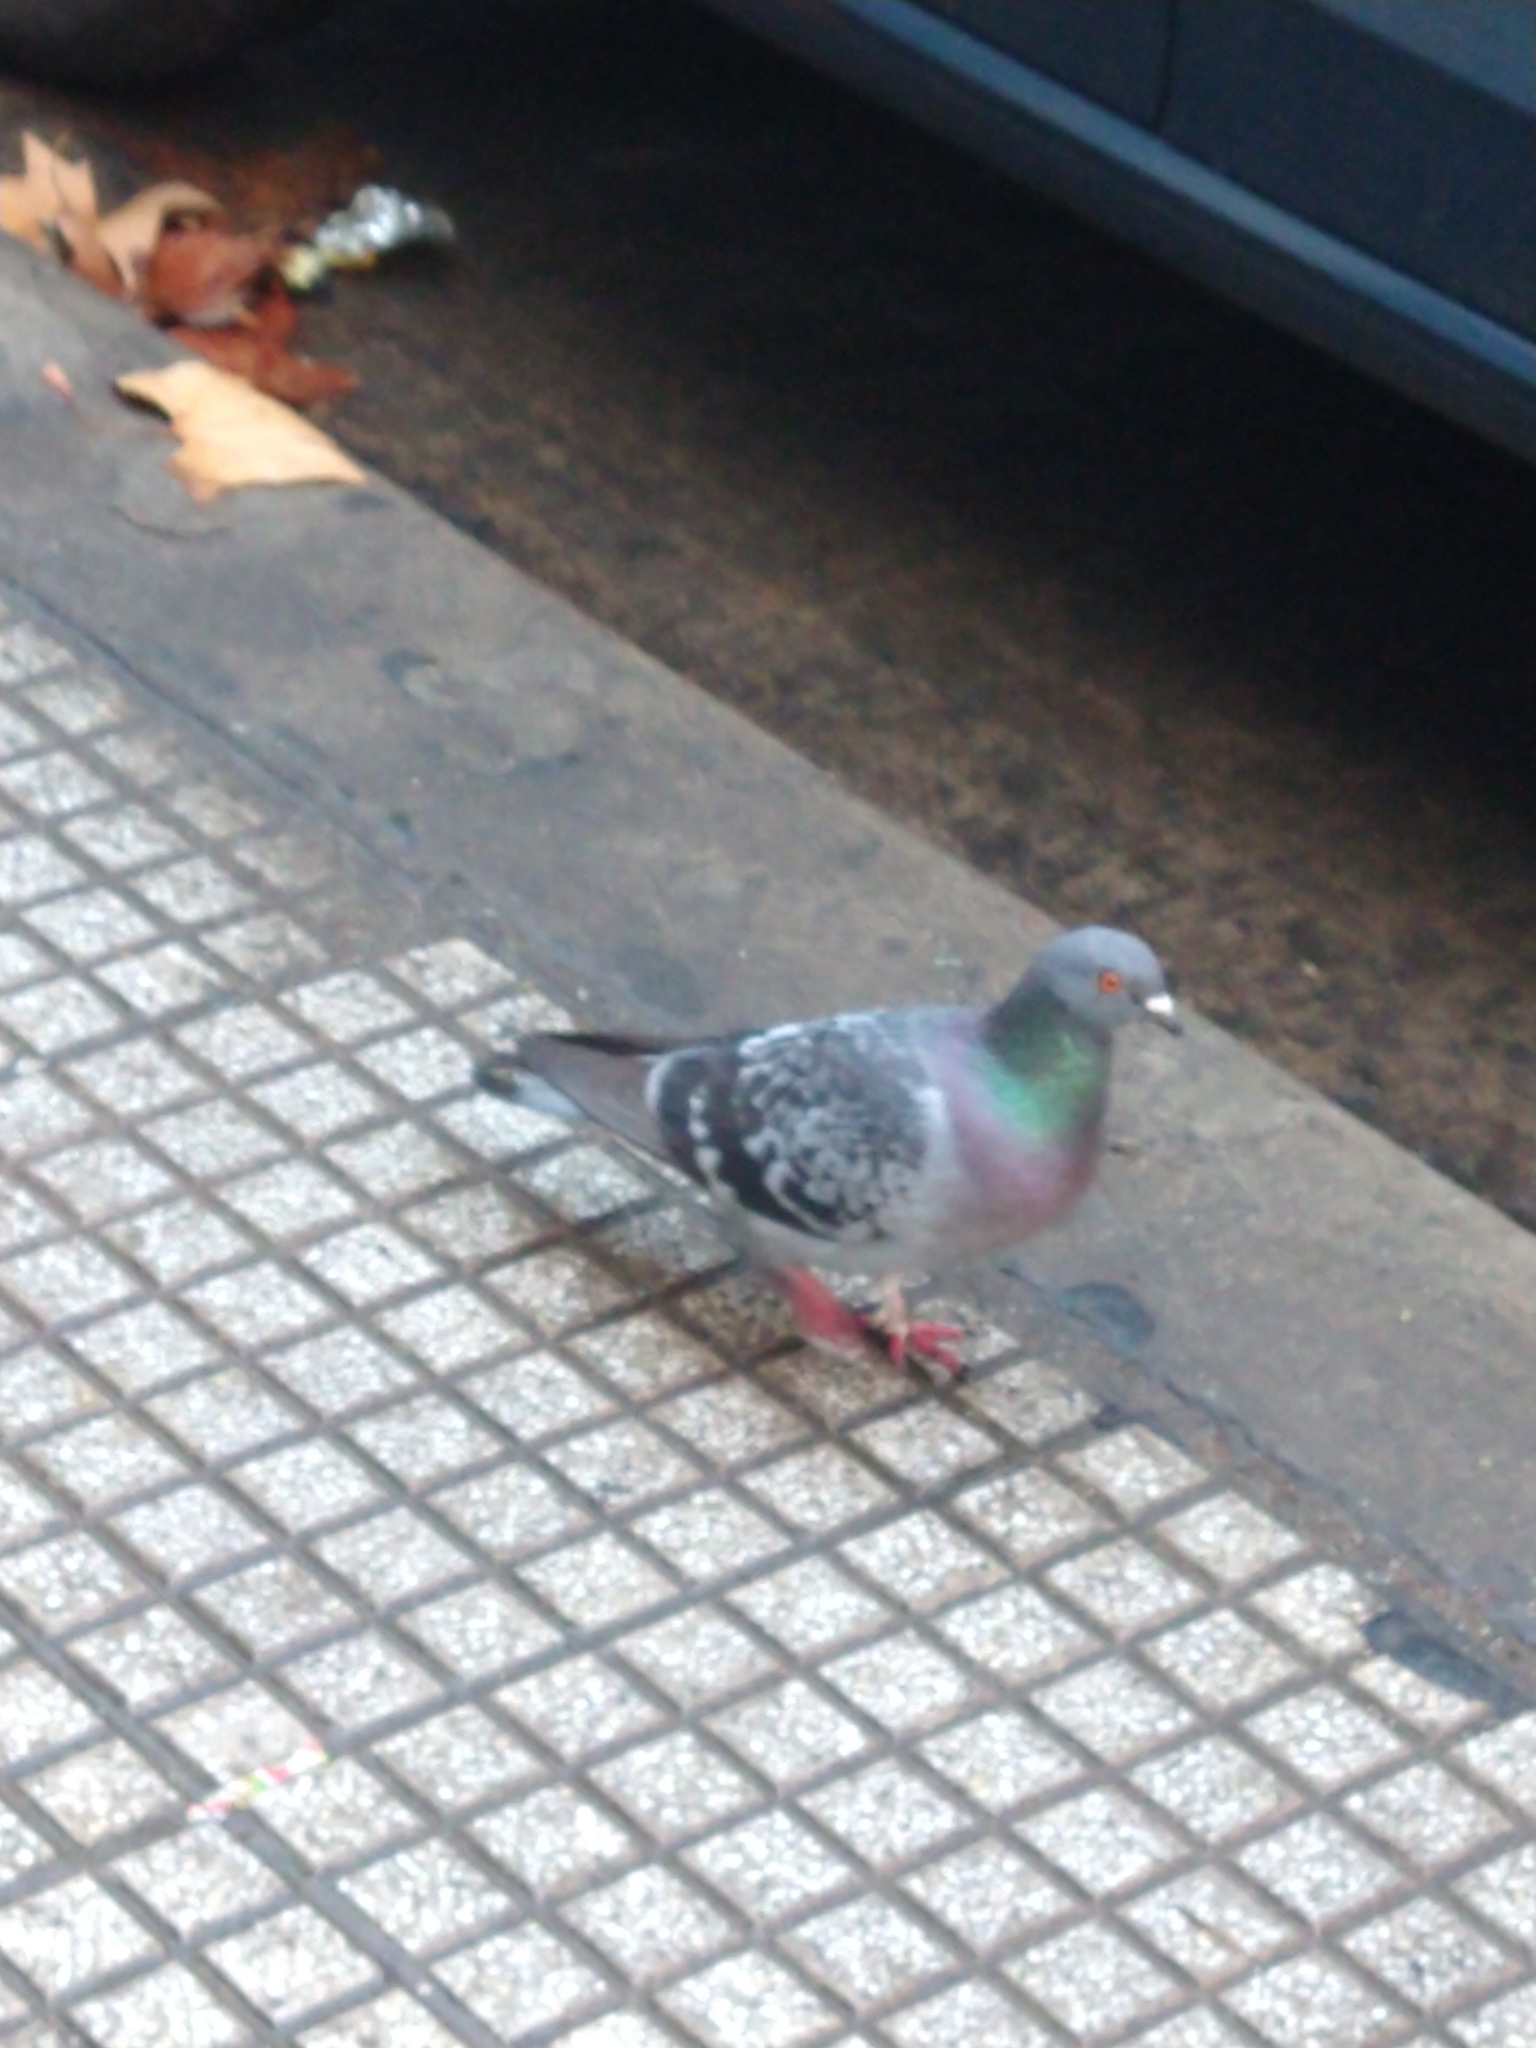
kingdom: Animalia
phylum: Chordata
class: Aves
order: Columbiformes
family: Columbidae
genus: Columba
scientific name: Columba livia
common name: Rock pigeon
